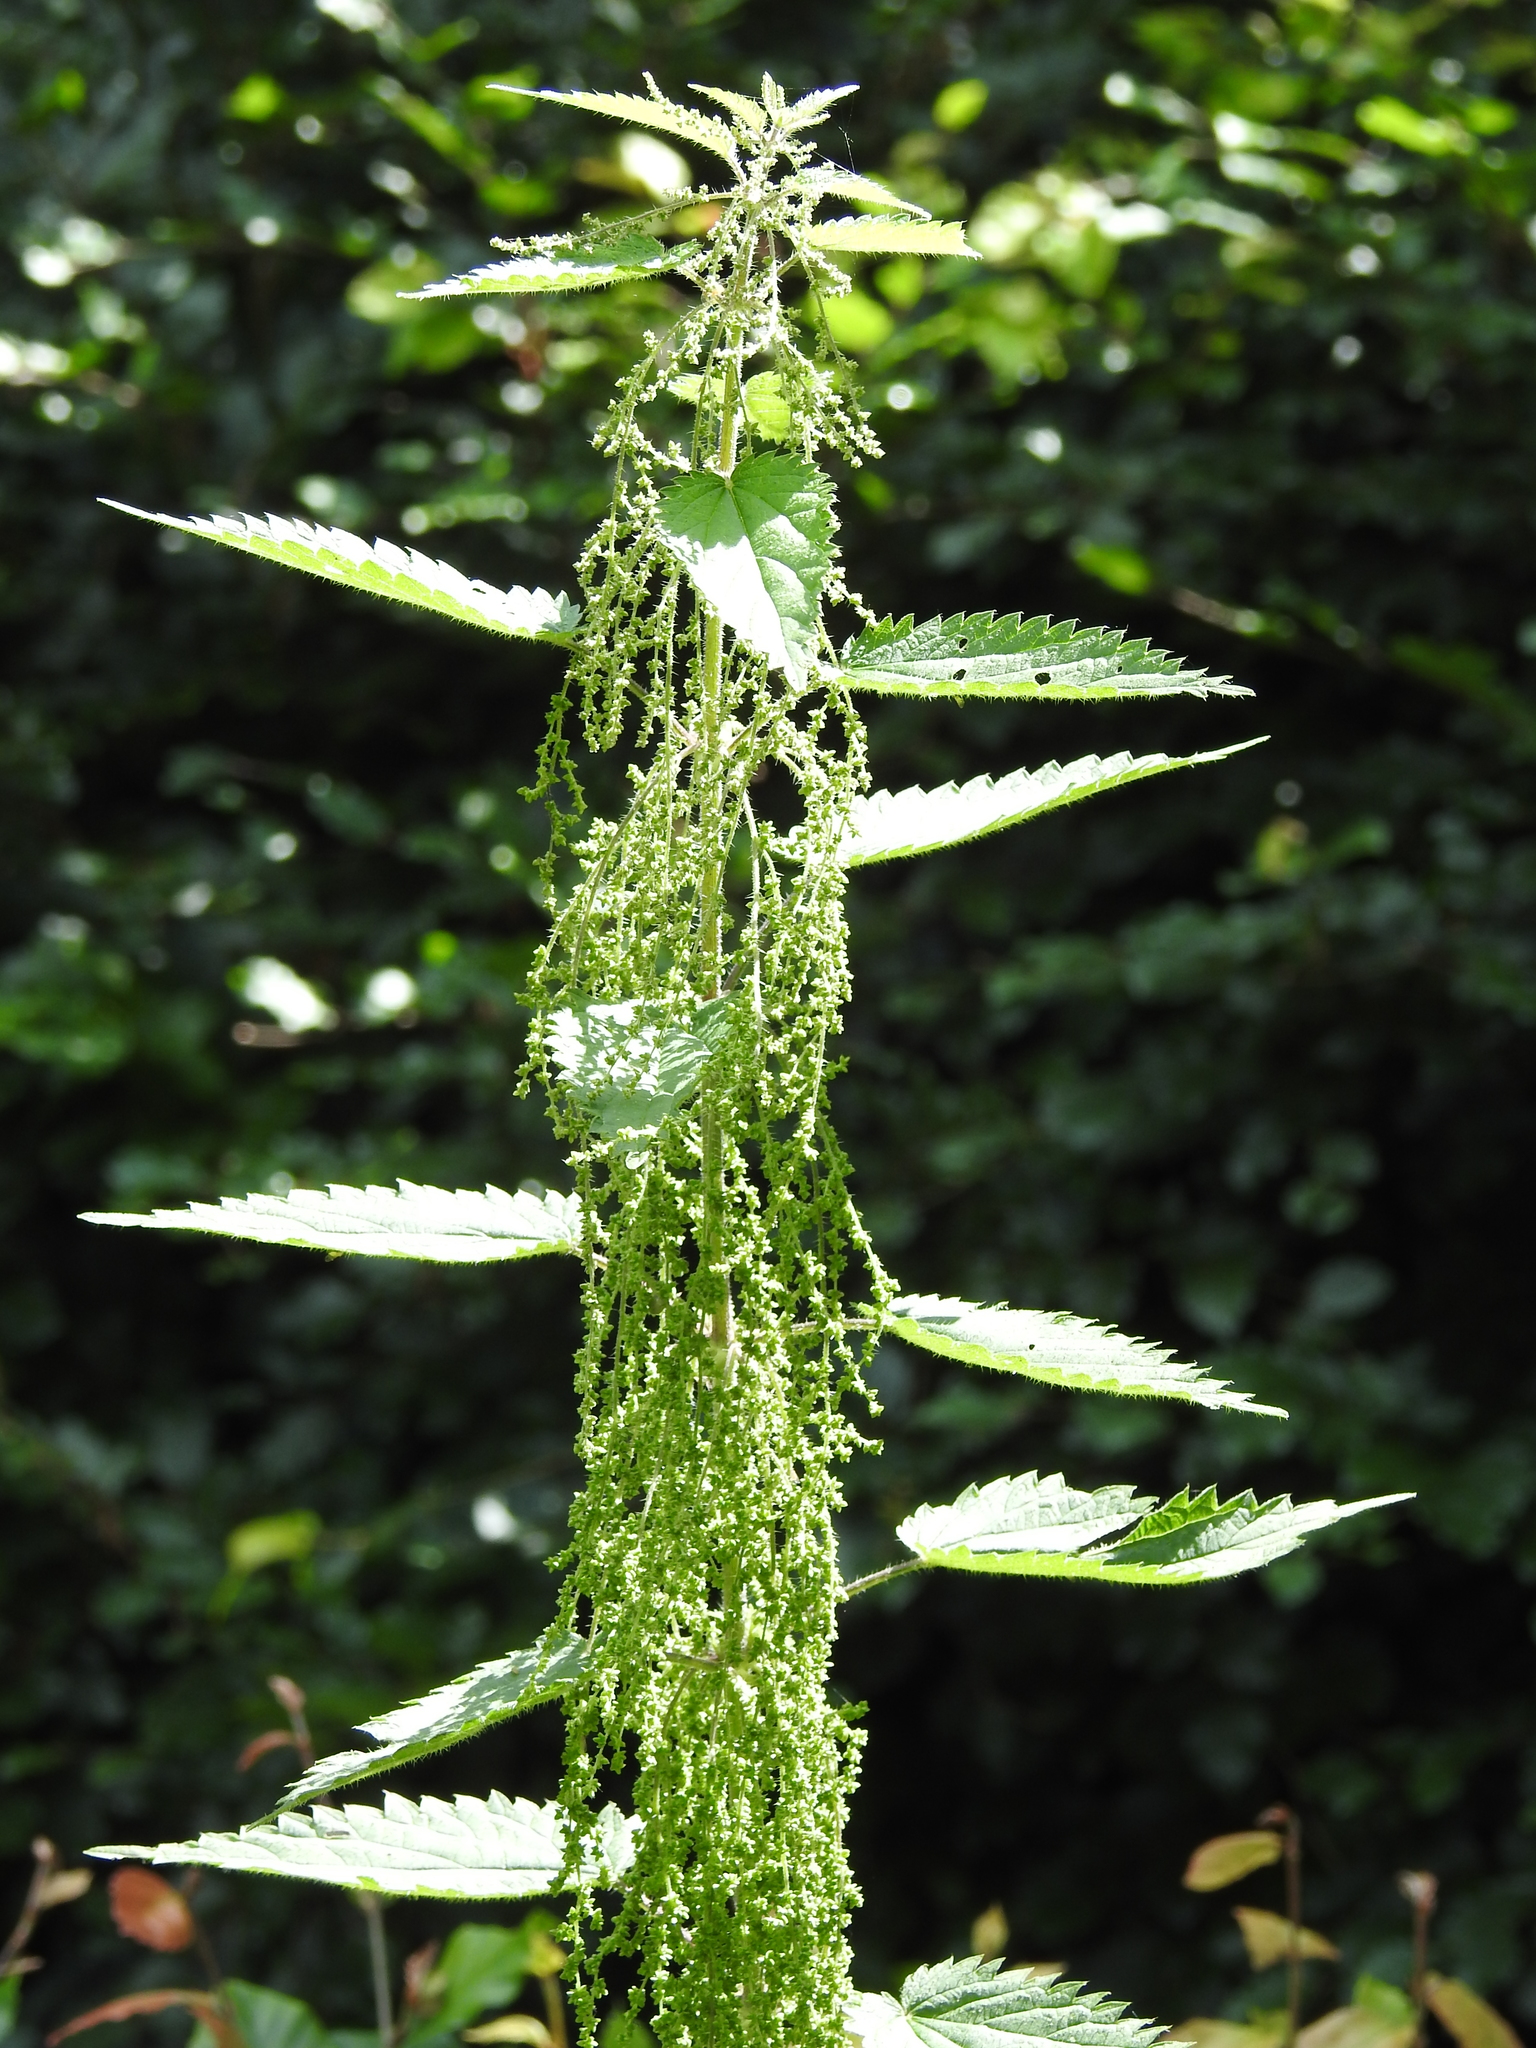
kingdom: Plantae
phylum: Tracheophyta
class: Magnoliopsida
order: Rosales
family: Urticaceae
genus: Urtica
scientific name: Urtica dioica
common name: Common nettle
